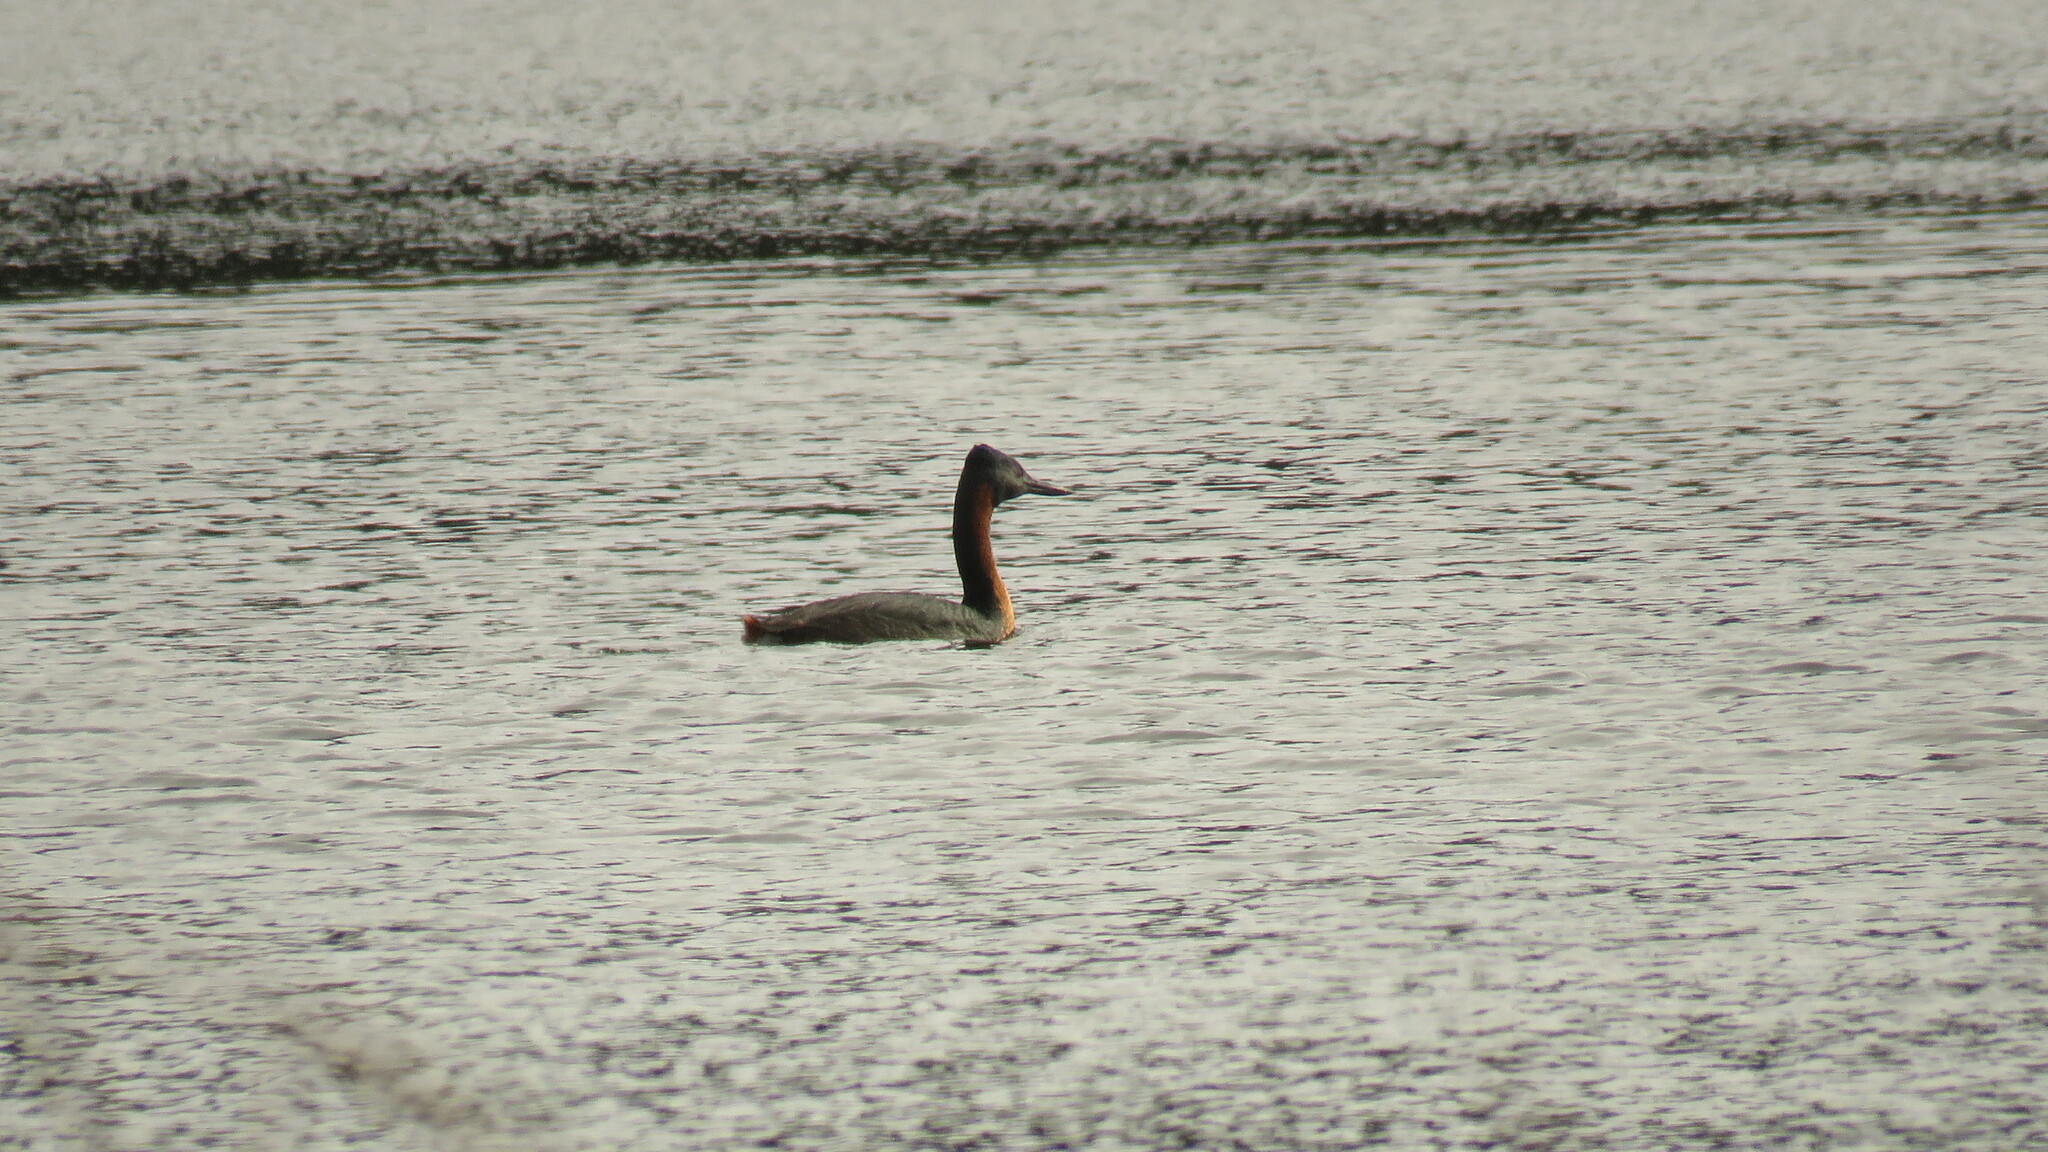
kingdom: Animalia
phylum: Chordata
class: Aves
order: Podicipediformes
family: Podicipedidae
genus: Podiceps
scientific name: Podiceps major
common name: Great grebe
